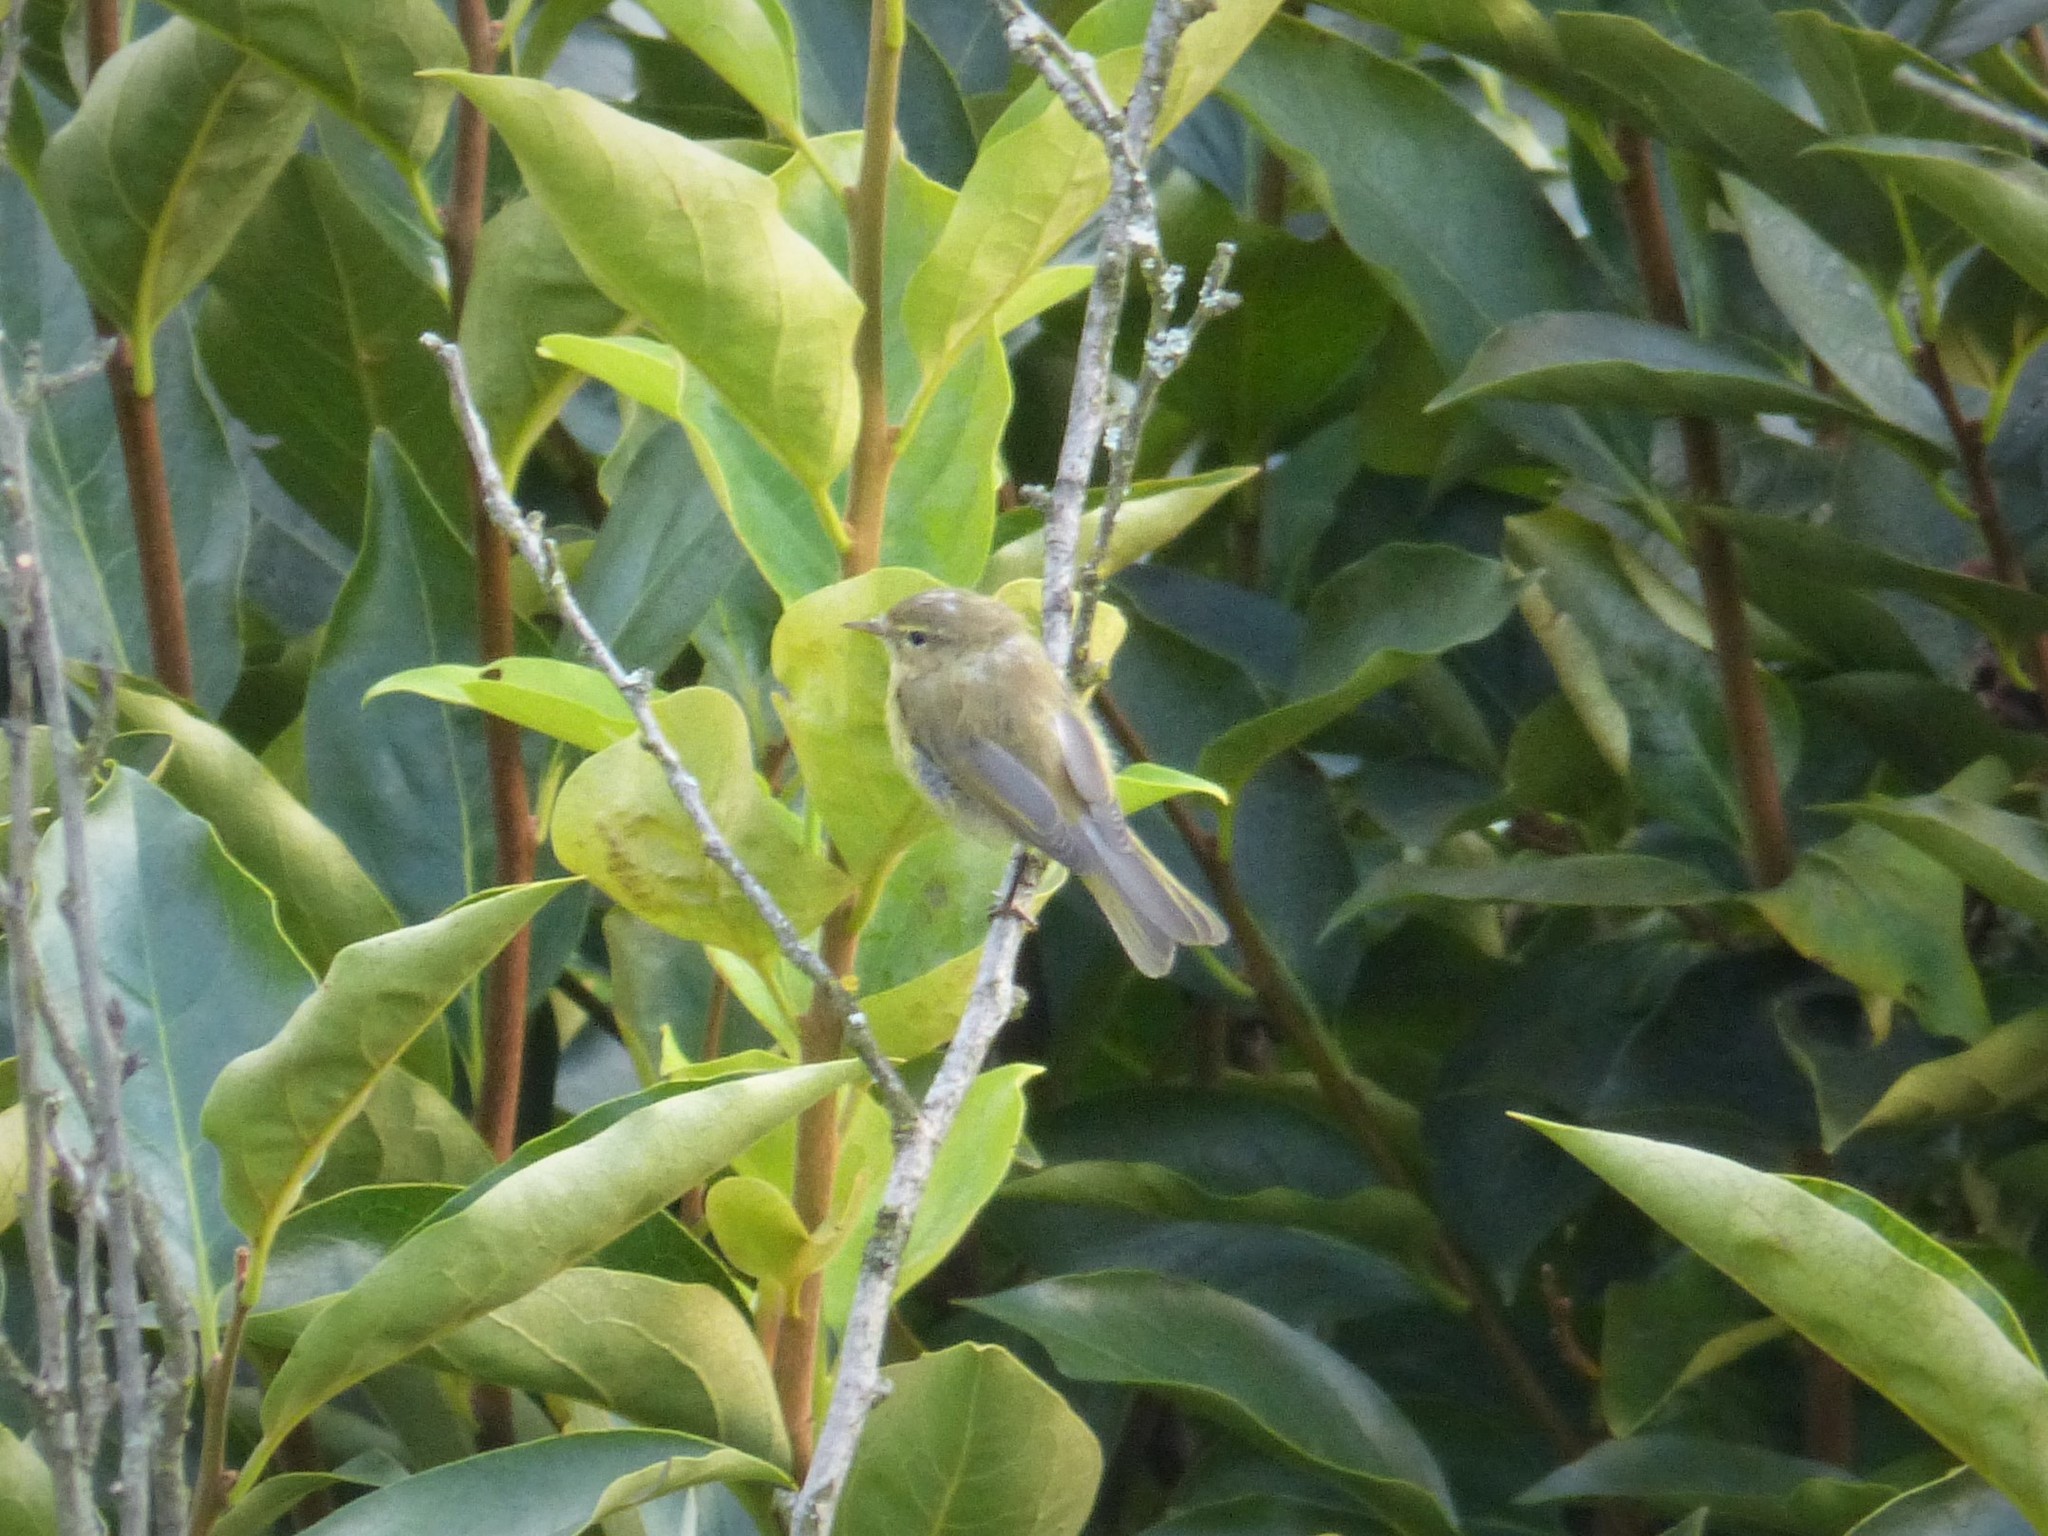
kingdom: Animalia
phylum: Chordata
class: Aves
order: Passeriformes
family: Phylloscopidae
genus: Phylloscopus
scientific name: Phylloscopus collybita
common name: Common chiffchaff
